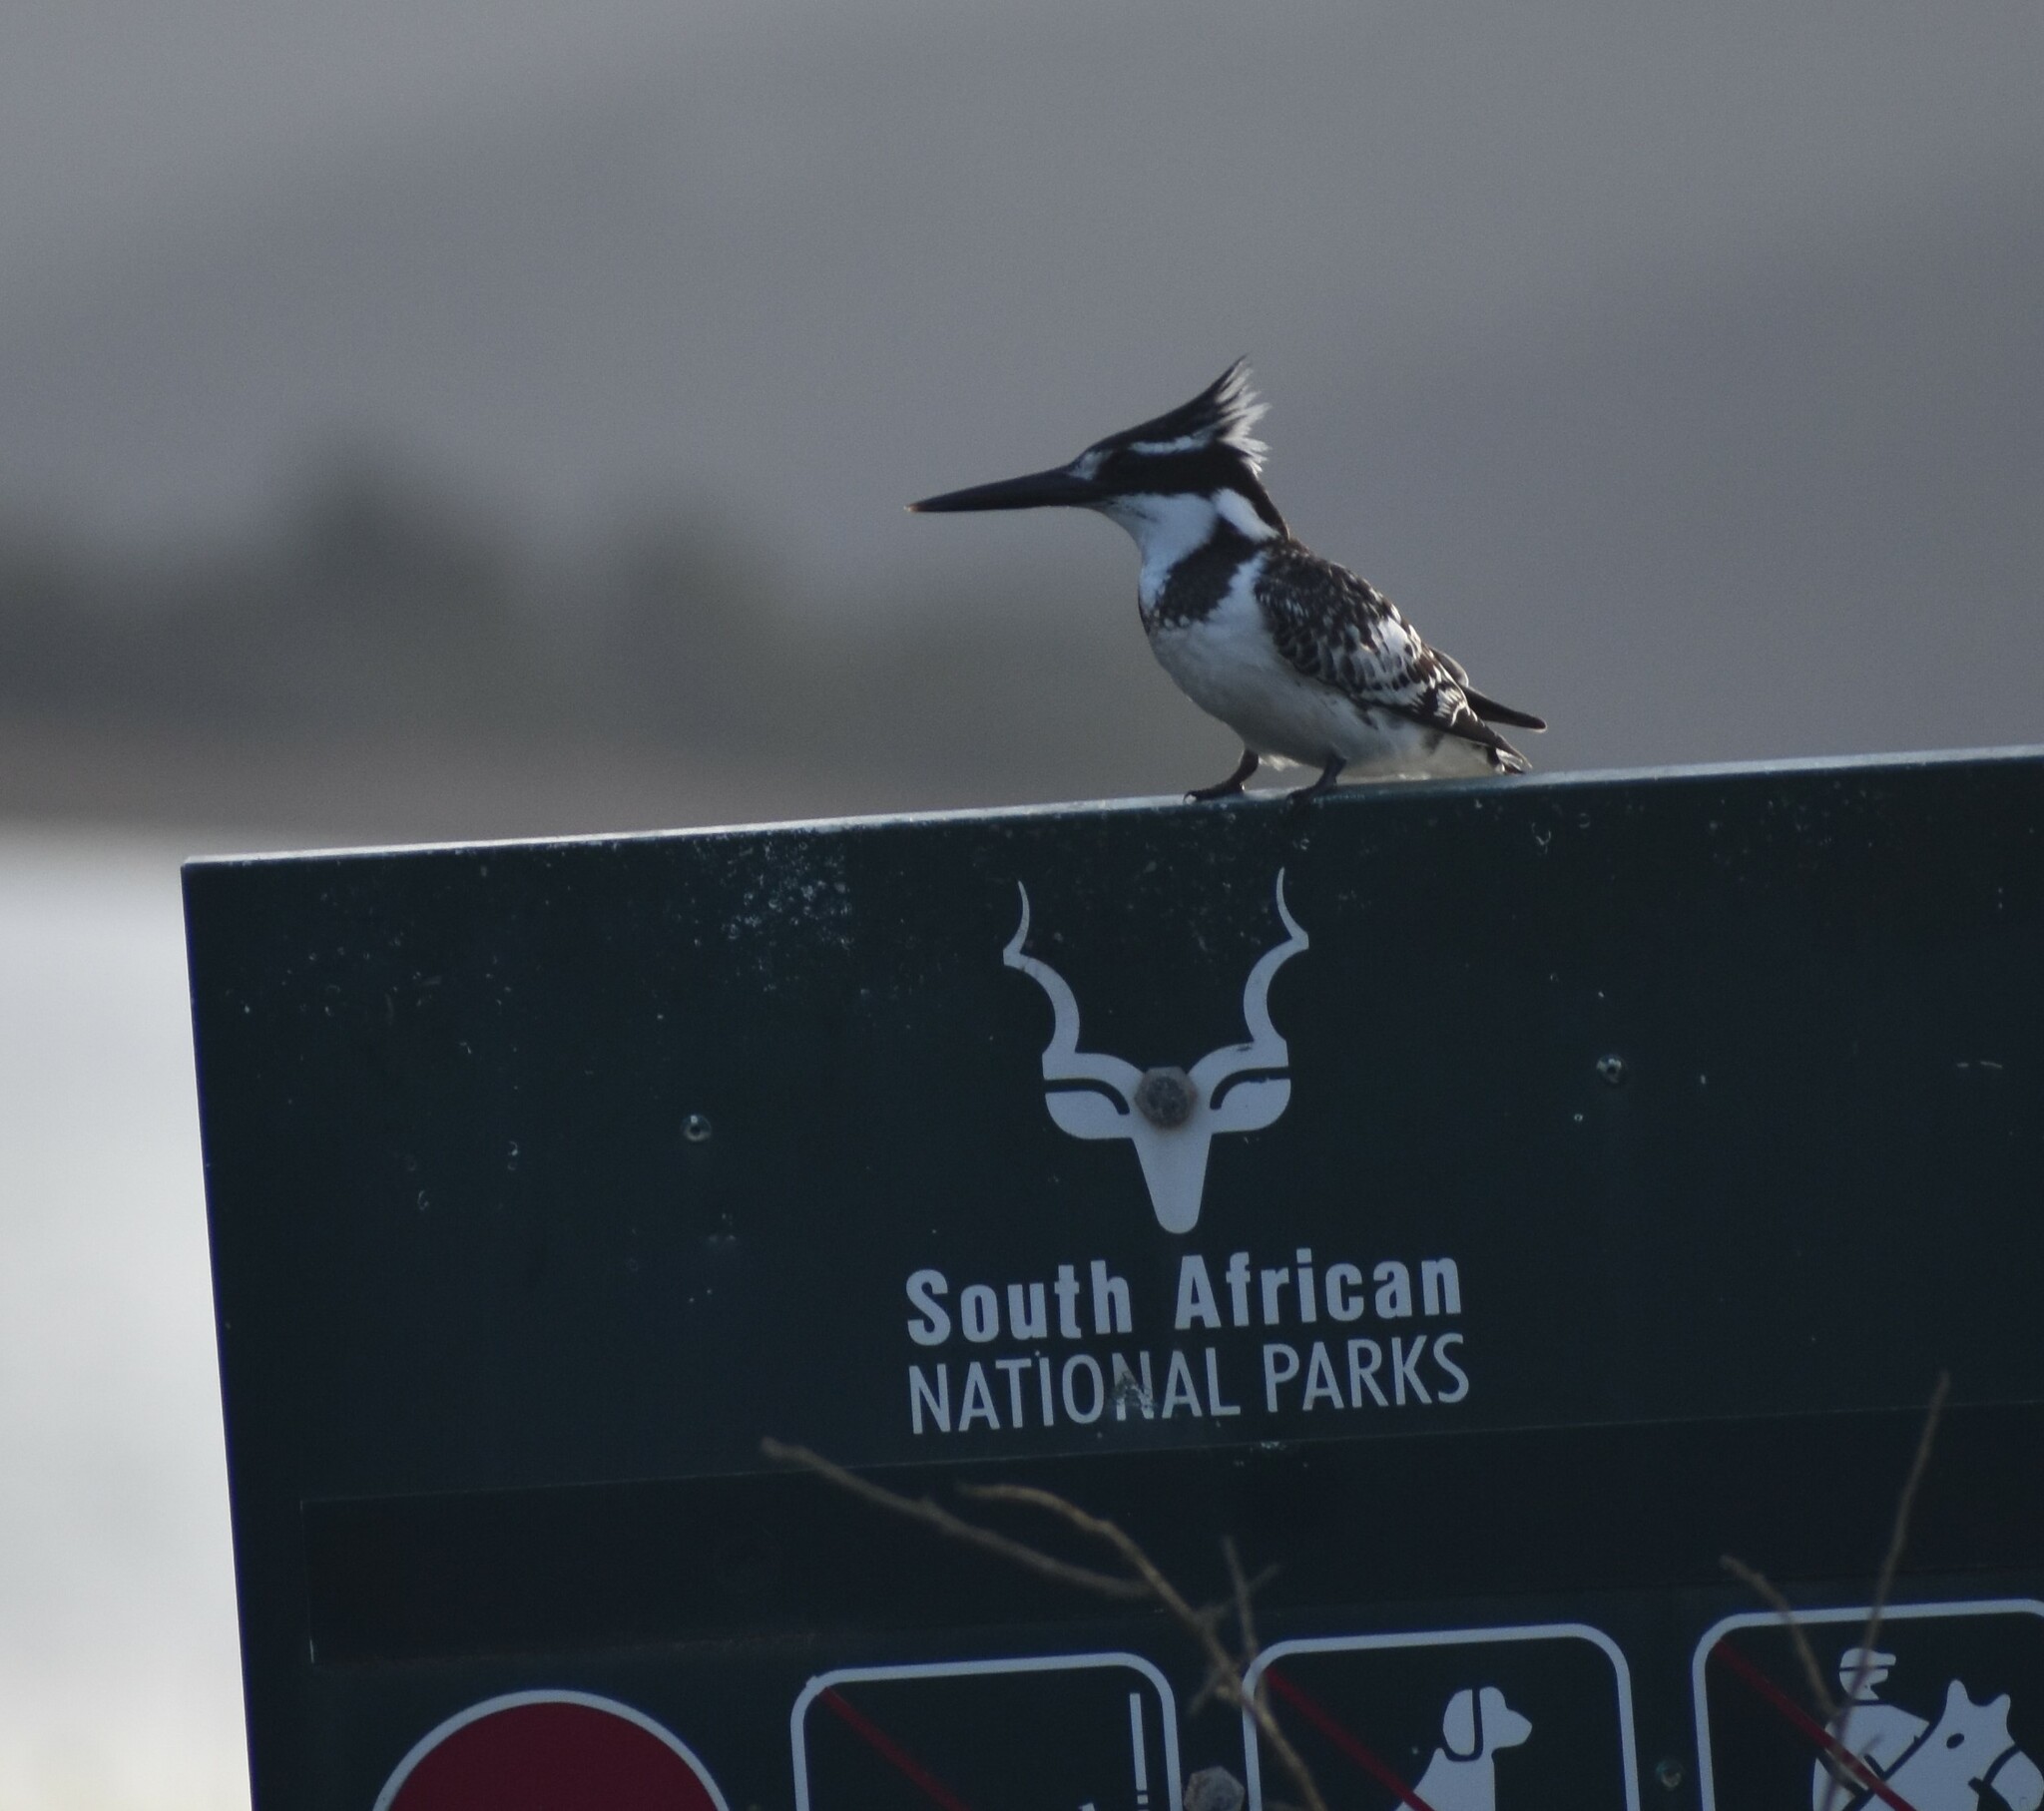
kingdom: Animalia
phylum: Chordata
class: Aves
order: Coraciiformes
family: Alcedinidae
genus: Ceryle
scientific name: Ceryle rudis
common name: Pied kingfisher
